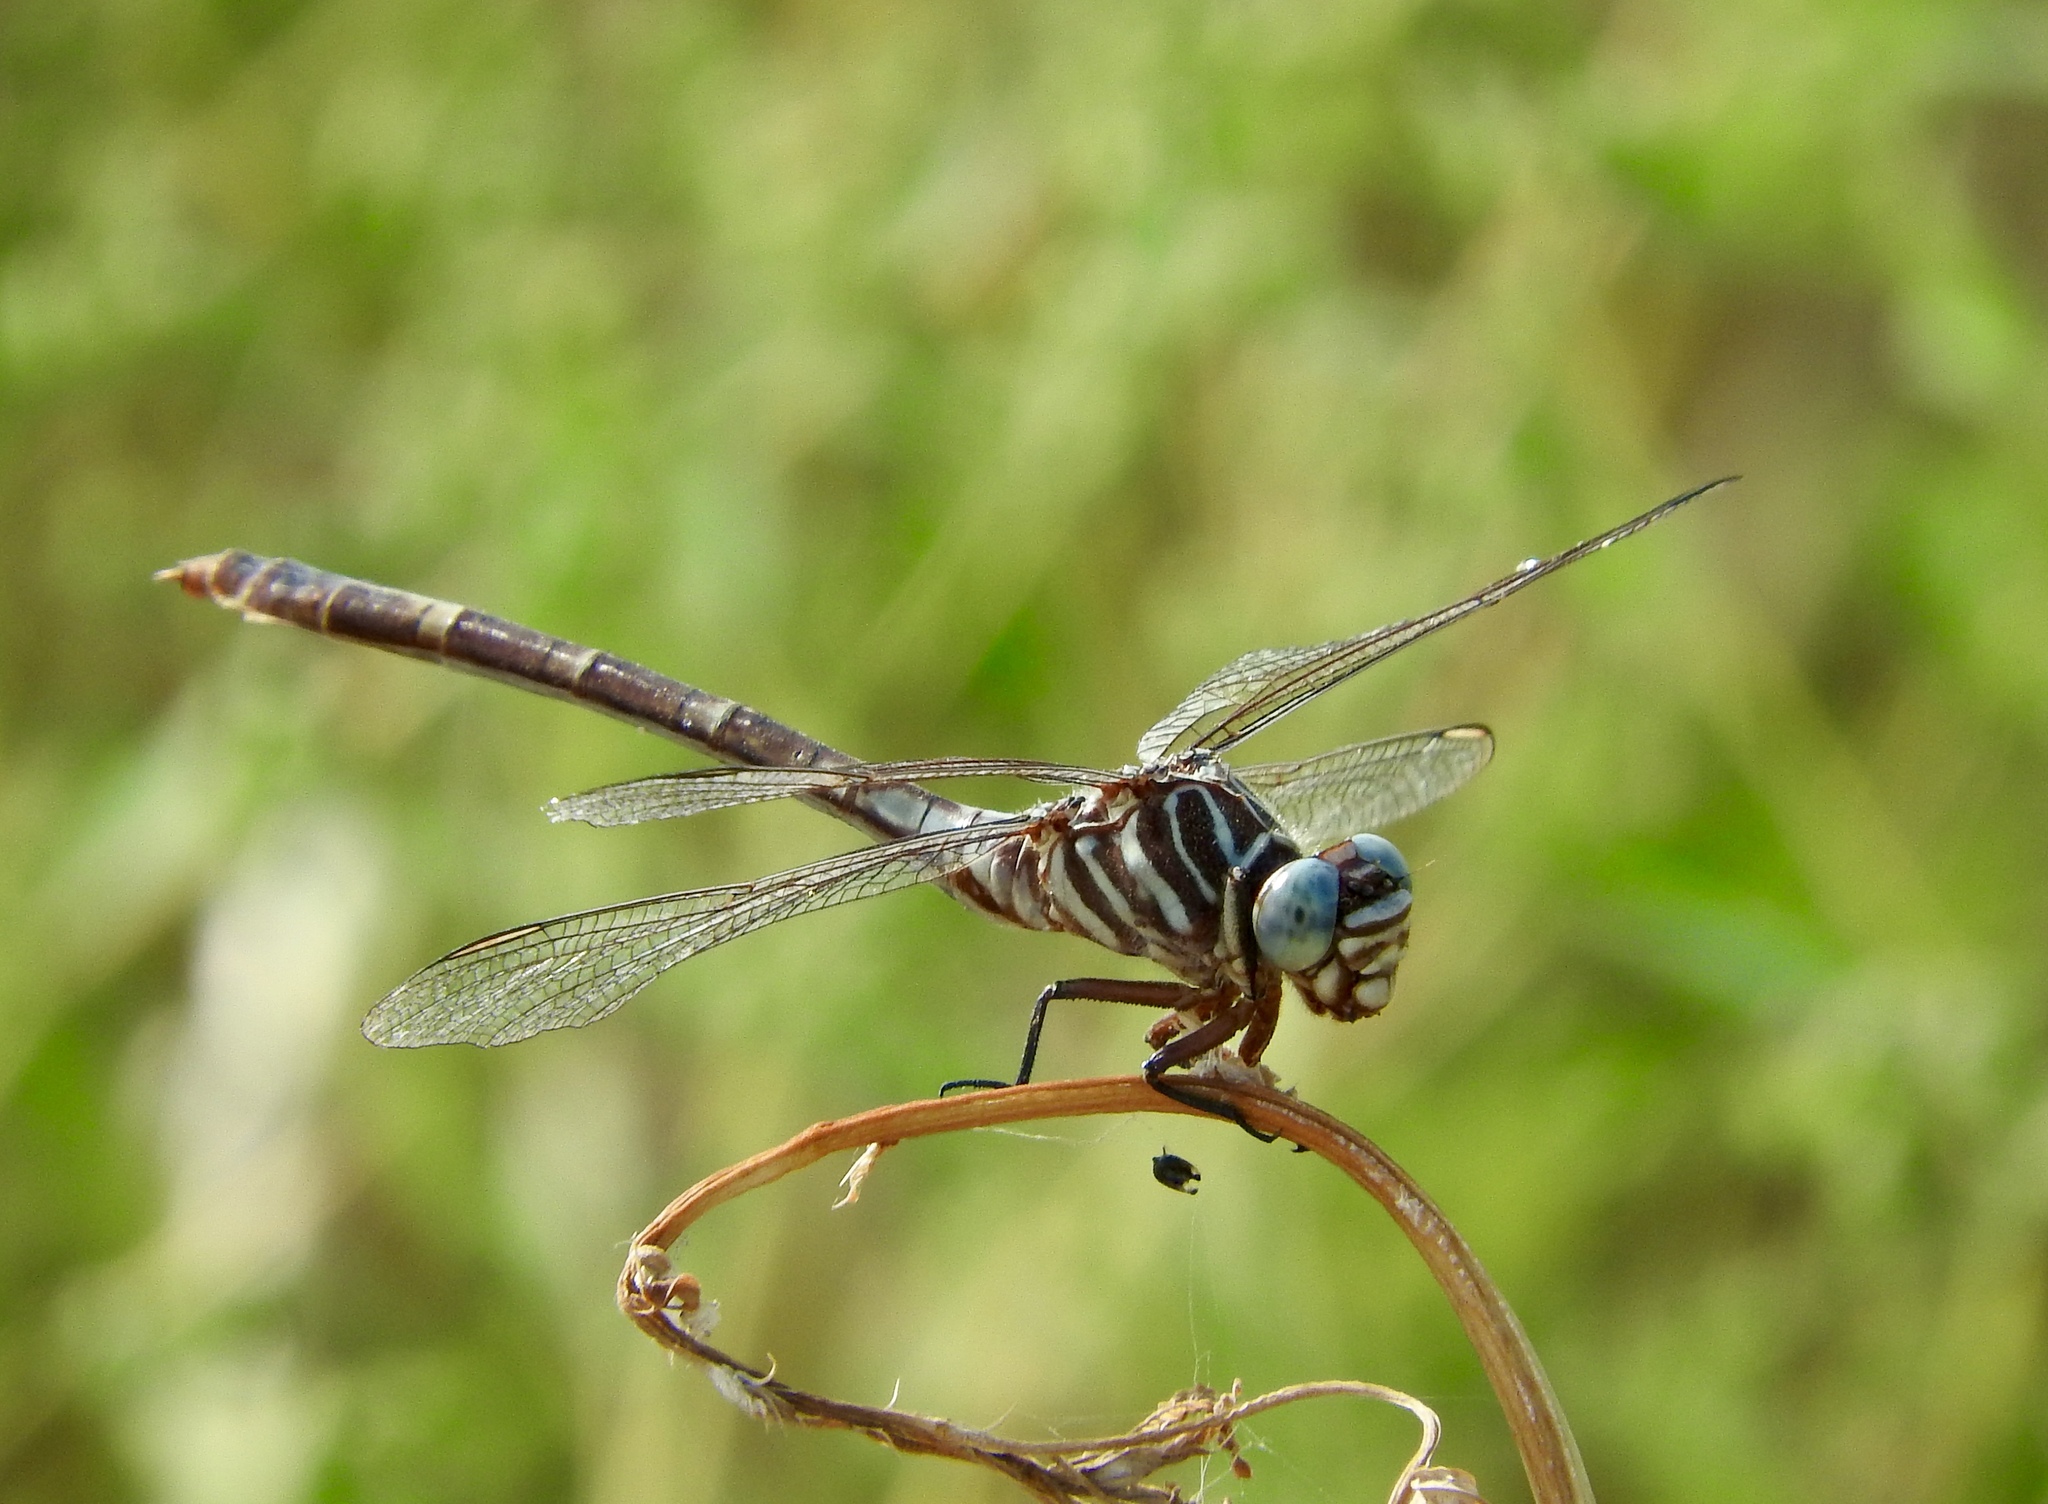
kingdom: Animalia
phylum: Arthropoda
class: Insecta
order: Odonata
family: Gomphidae
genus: Aphylla
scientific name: Aphylla protracta
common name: Narrow-striped forceptail
